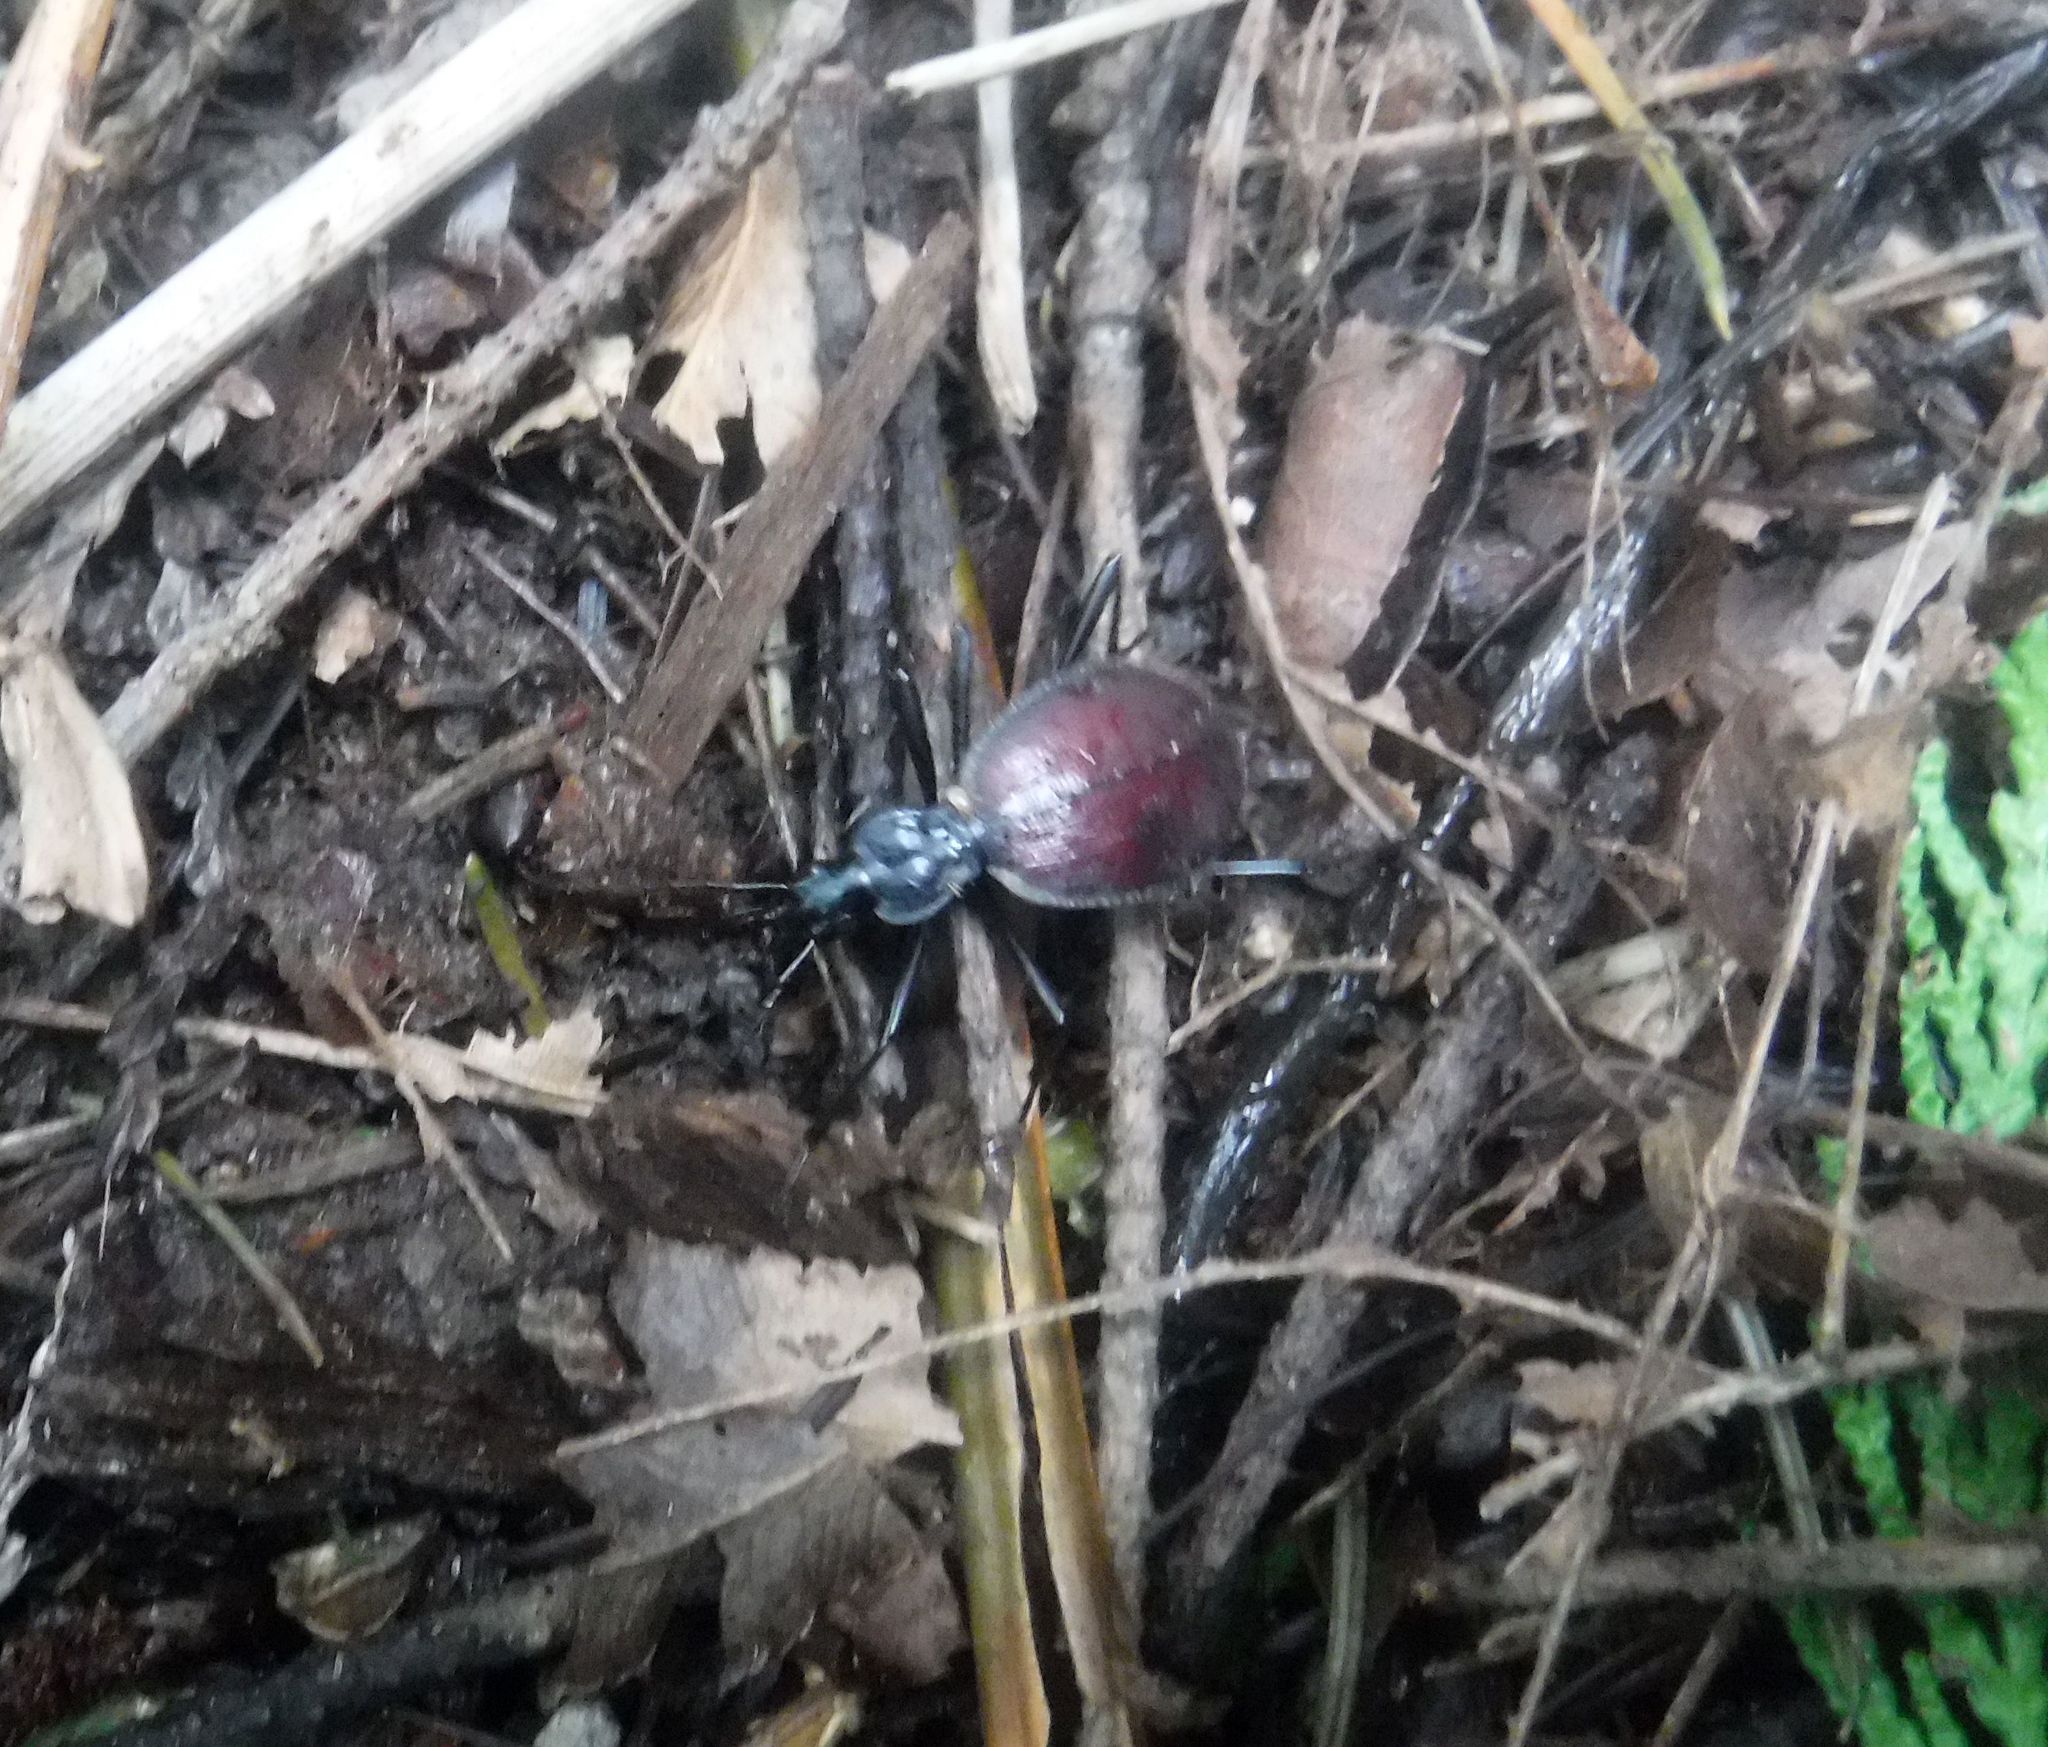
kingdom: Animalia
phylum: Arthropoda
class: Insecta
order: Coleoptera
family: Carabidae
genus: Scaphinotus
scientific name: Scaphinotus angusticollis
